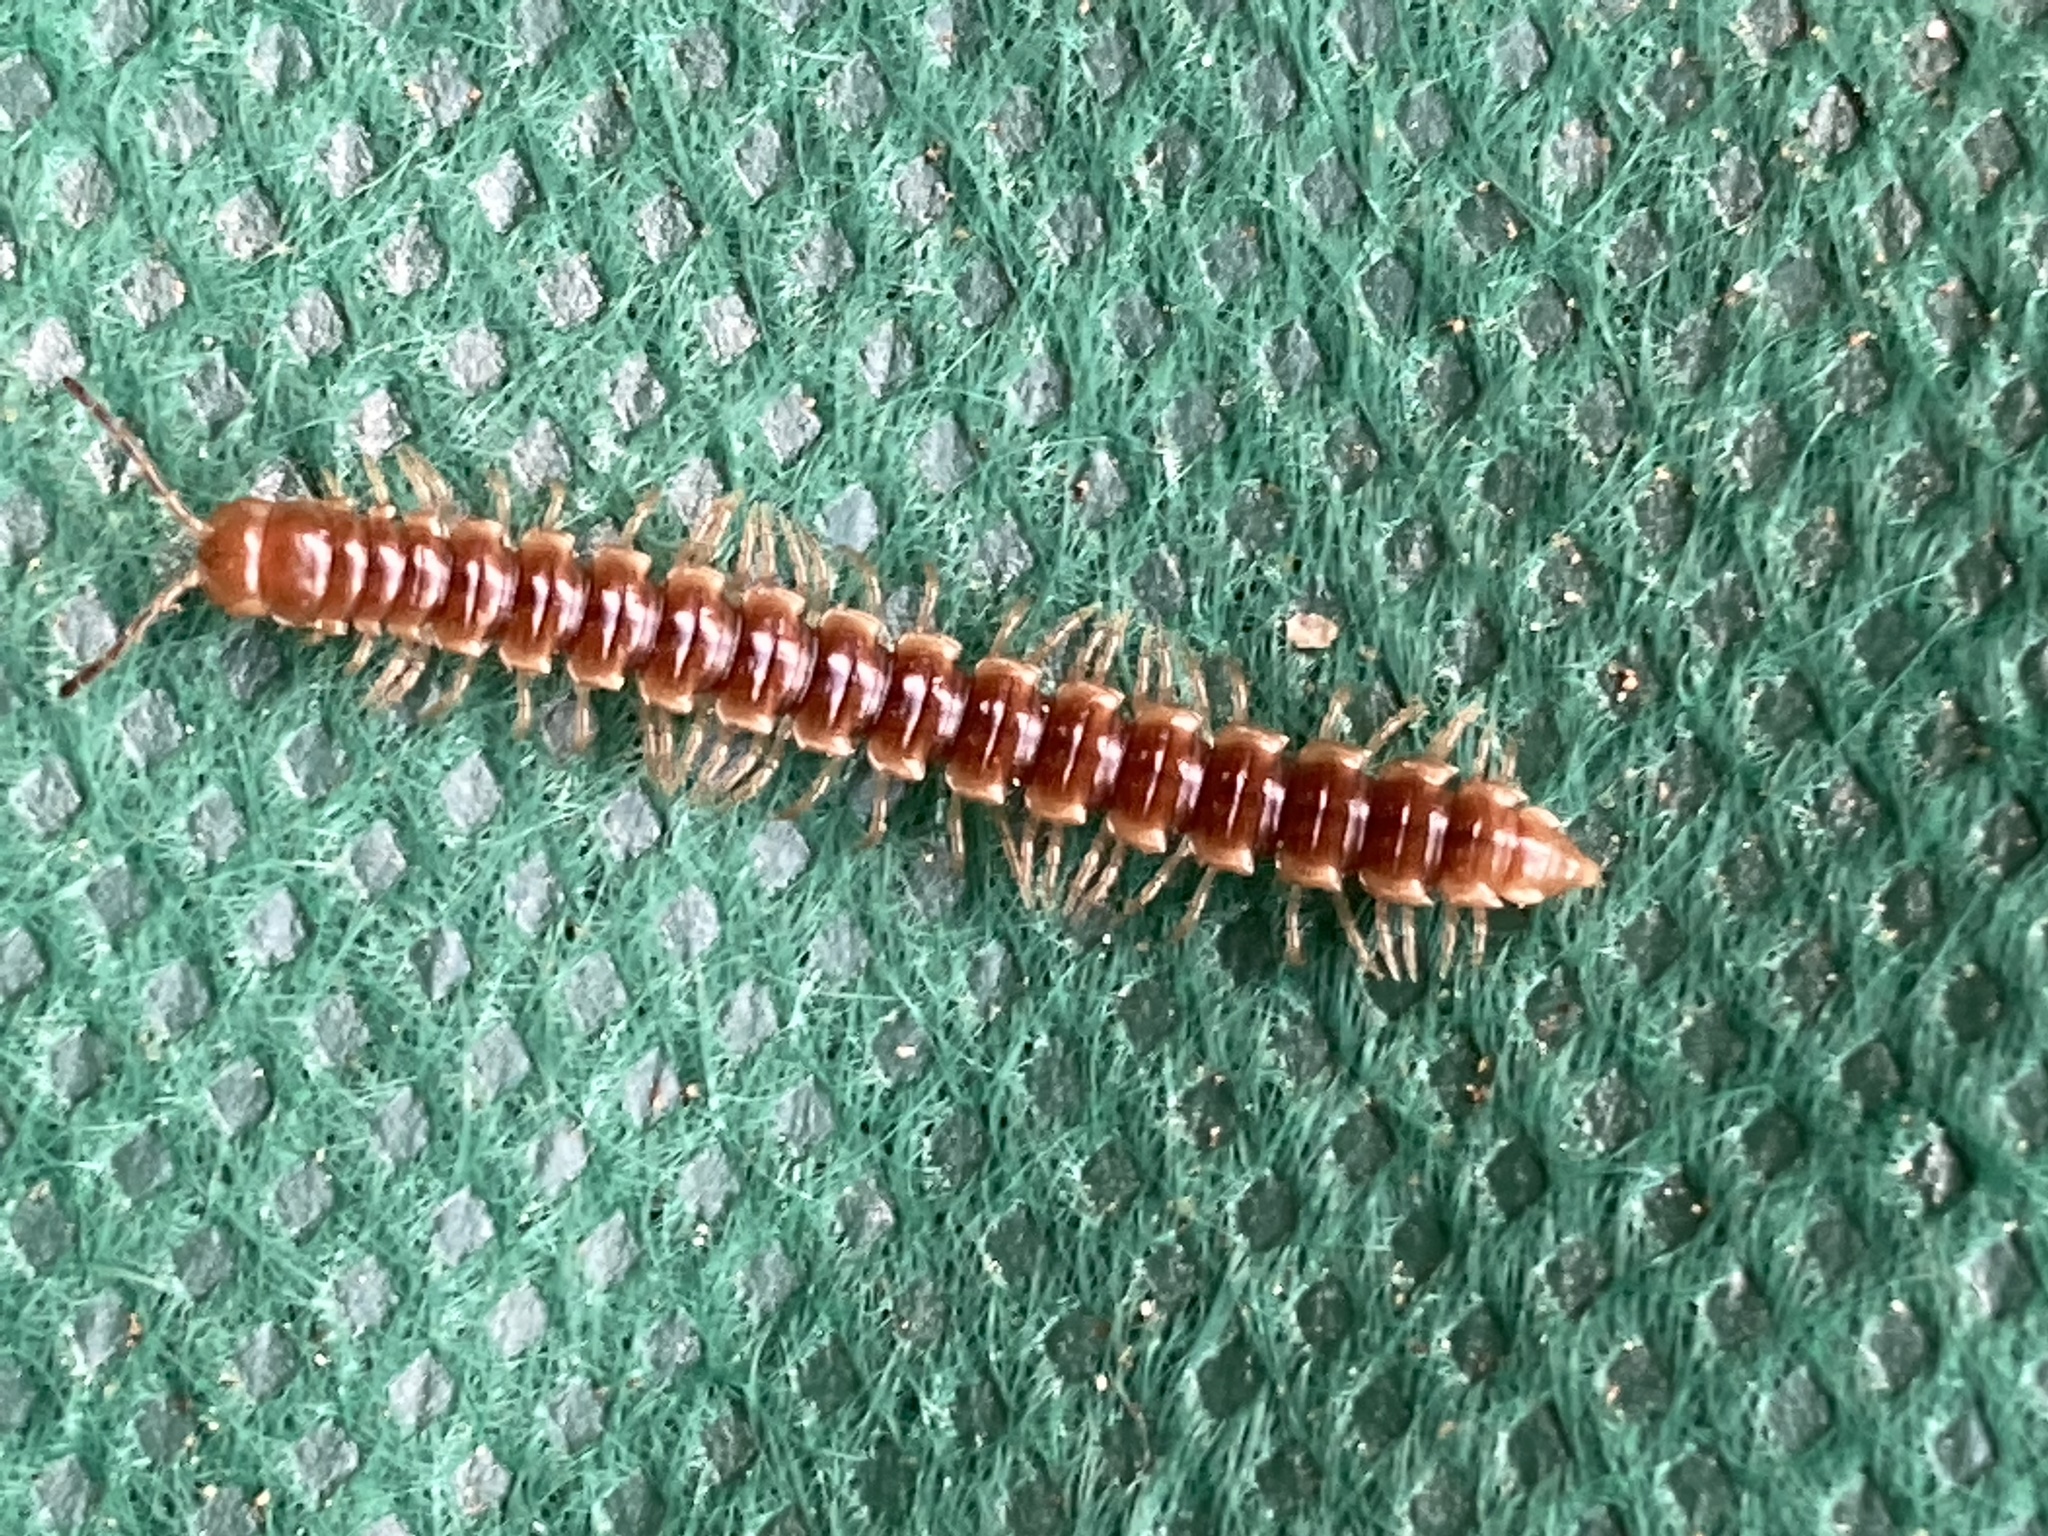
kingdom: Animalia
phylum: Arthropoda
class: Diplopoda
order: Polydesmida
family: Paradoxosomatidae
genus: Oxidus
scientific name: Oxidus gracilis
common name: Greenhouse millipede
